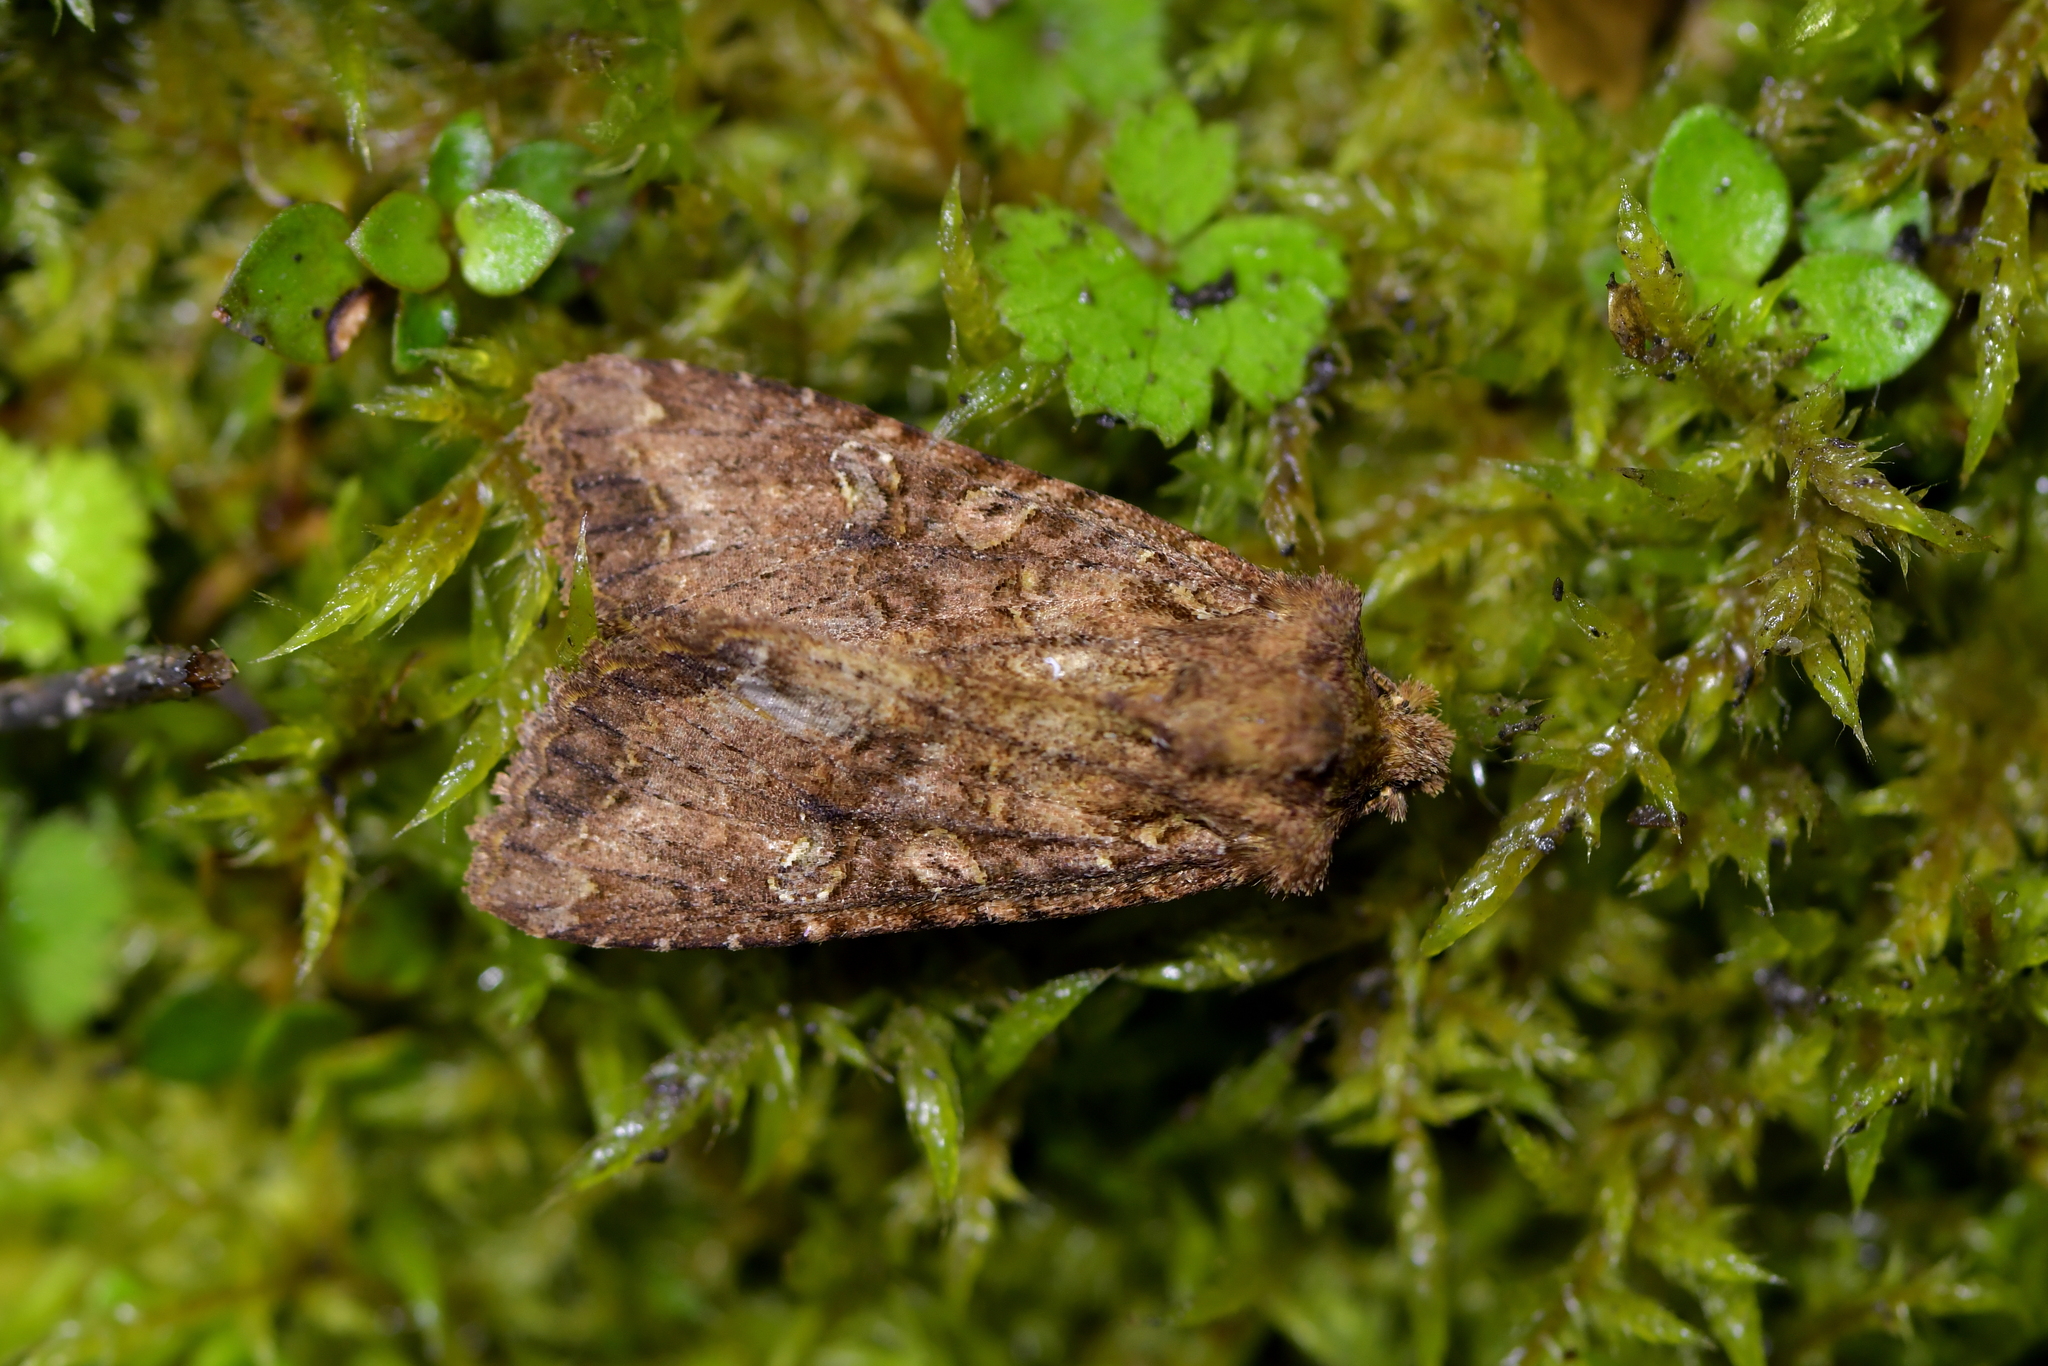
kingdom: Animalia
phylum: Arthropoda
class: Insecta
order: Lepidoptera
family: Noctuidae
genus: Meterana
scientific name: Meterana
